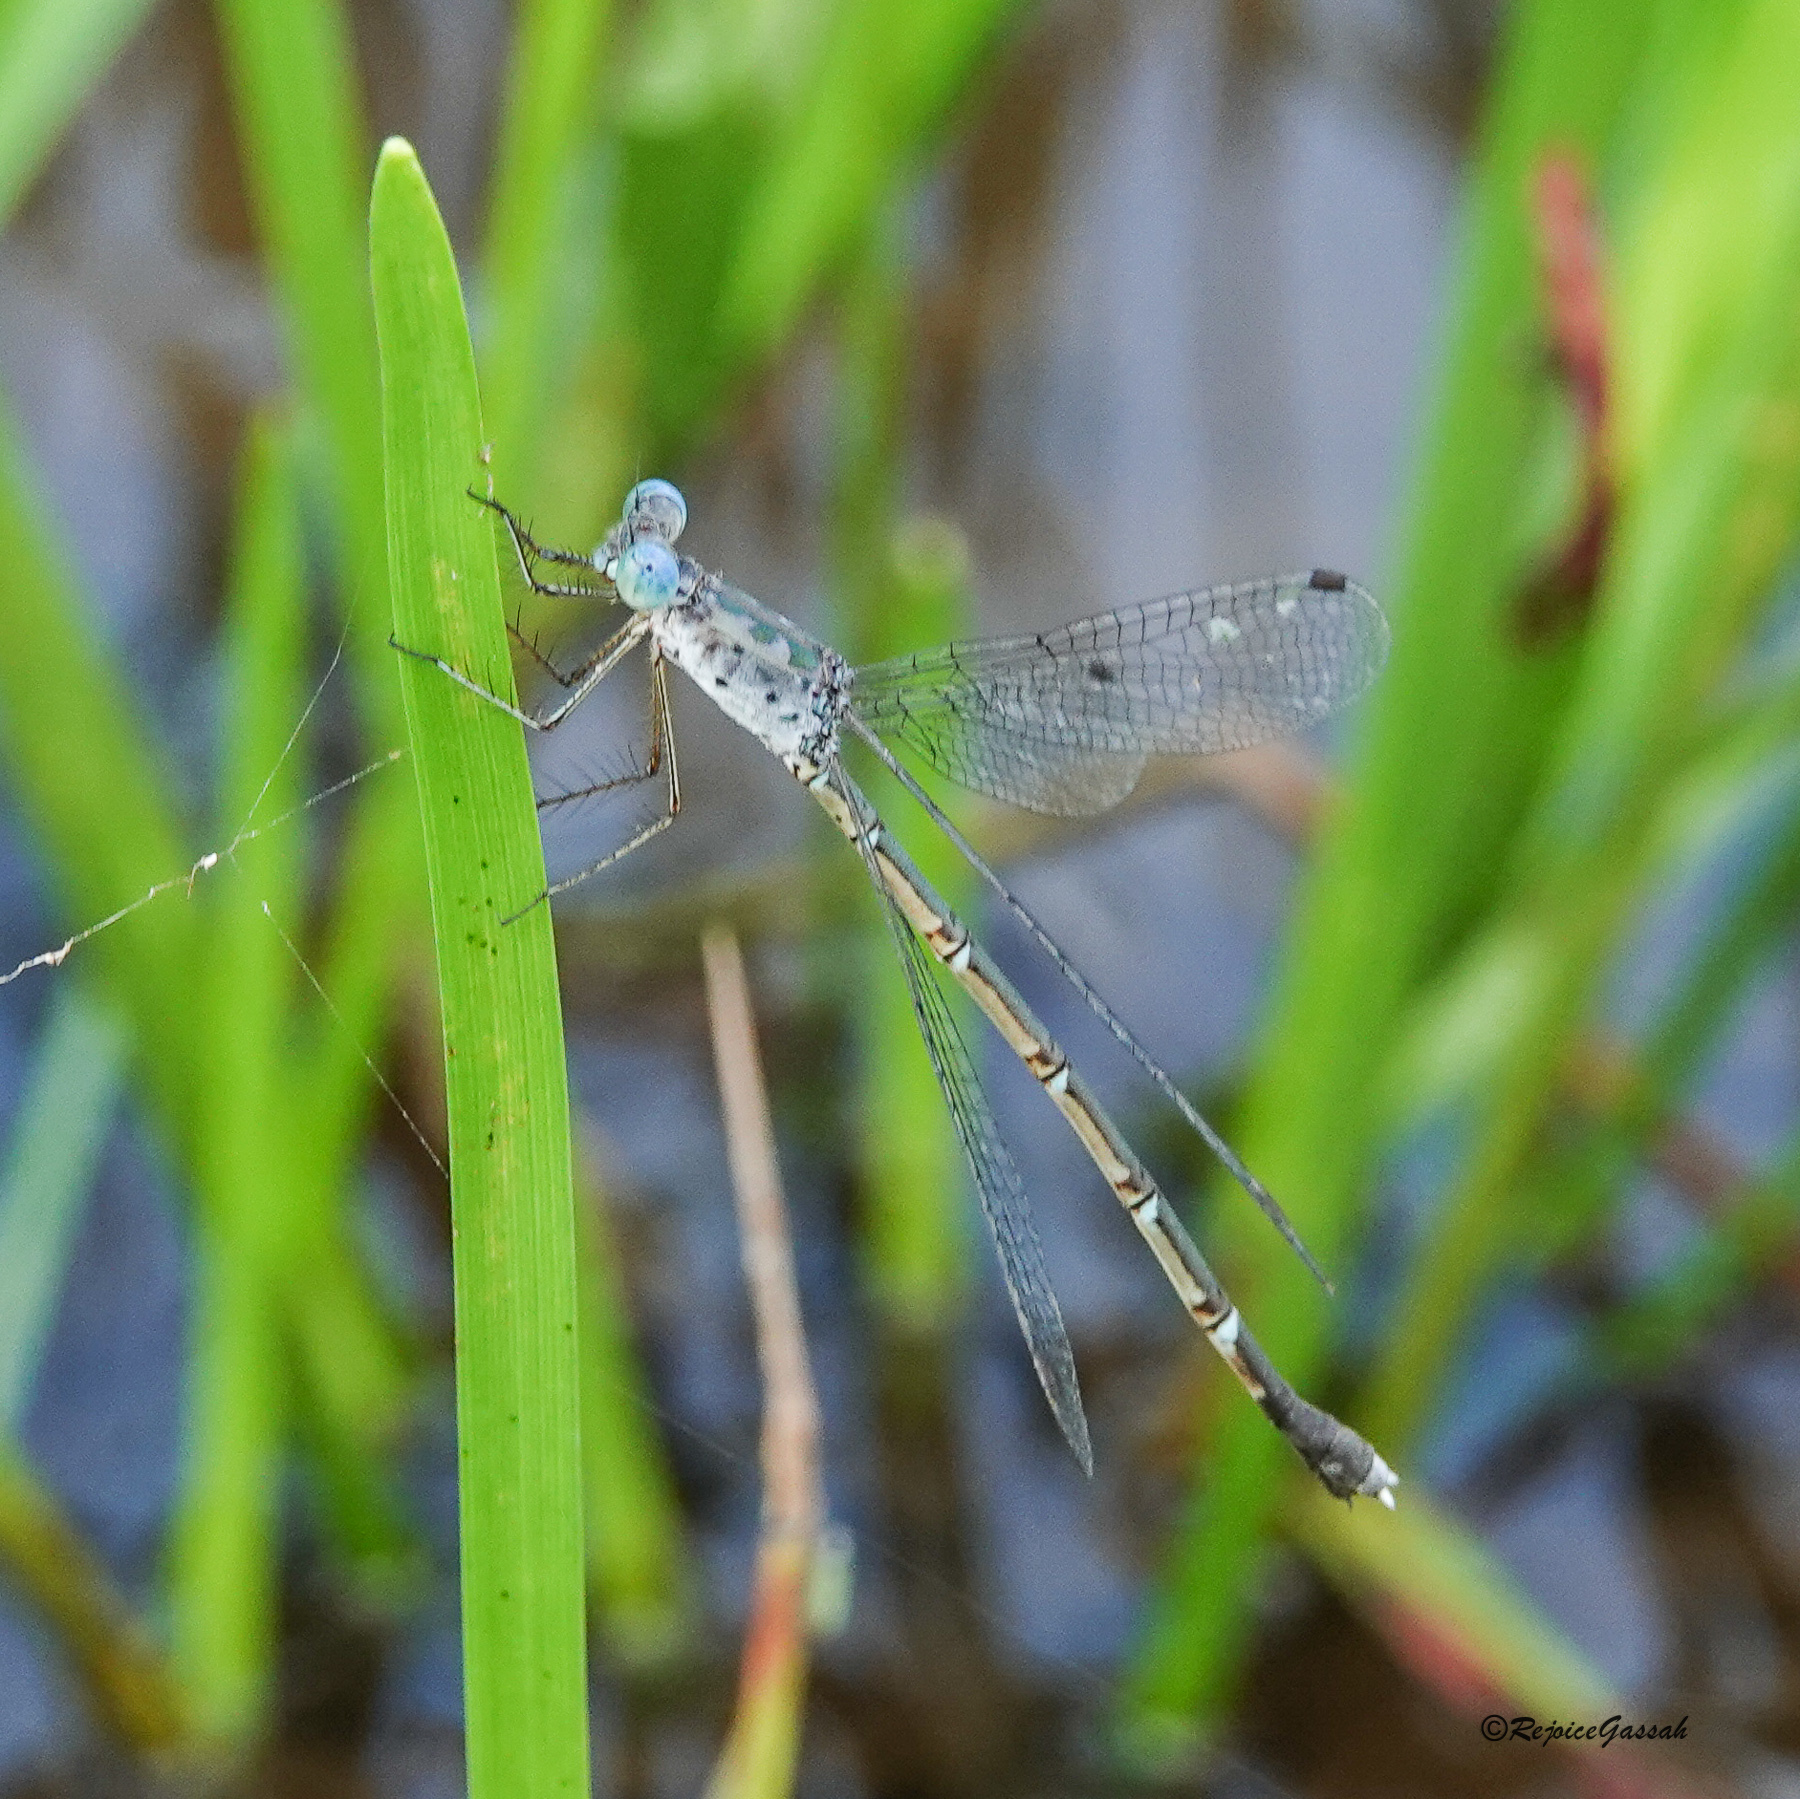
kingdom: Animalia
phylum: Arthropoda
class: Insecta
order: Odonata
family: Lestidae
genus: Lestes
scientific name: Lestes praemorsus
